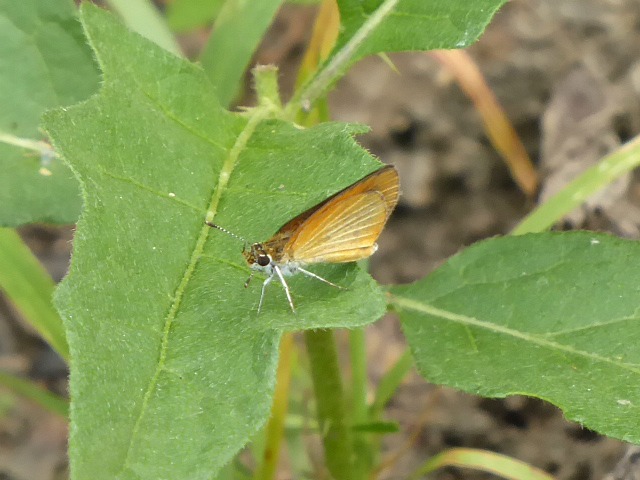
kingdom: Animalia
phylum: Arthropoda
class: Insecta
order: Lepidoptera
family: Hesperiidae
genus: Ancyloxypha
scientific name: Ancyloxypha numitor
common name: Least skipper
